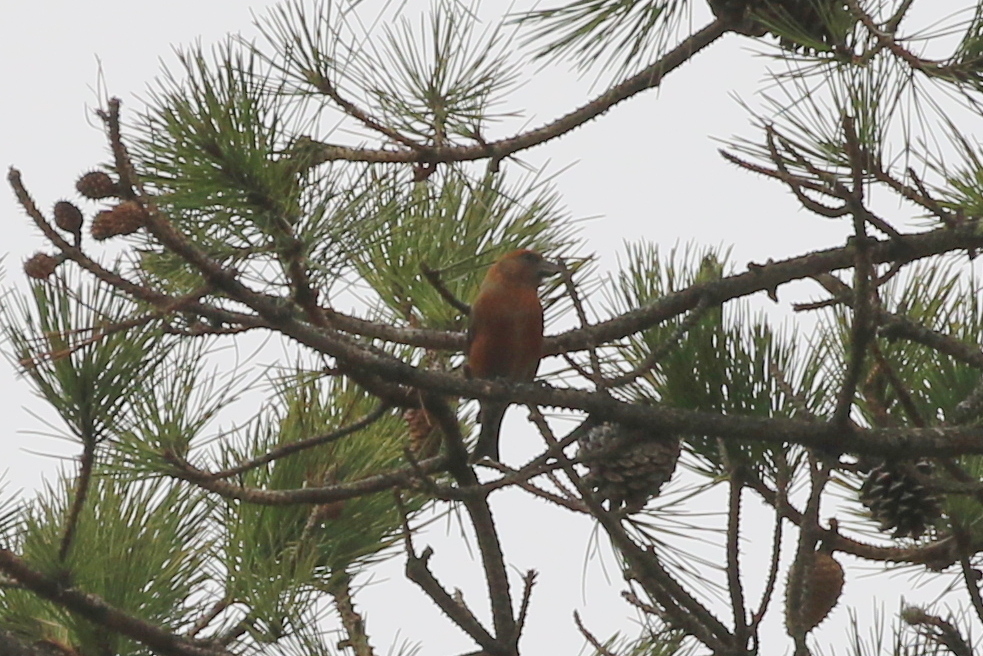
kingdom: Animalia
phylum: Chordata
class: Aves
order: Passeriformes
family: Fringillidae
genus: Loxia
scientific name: Loxia curvirostra
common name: Red crossbill
